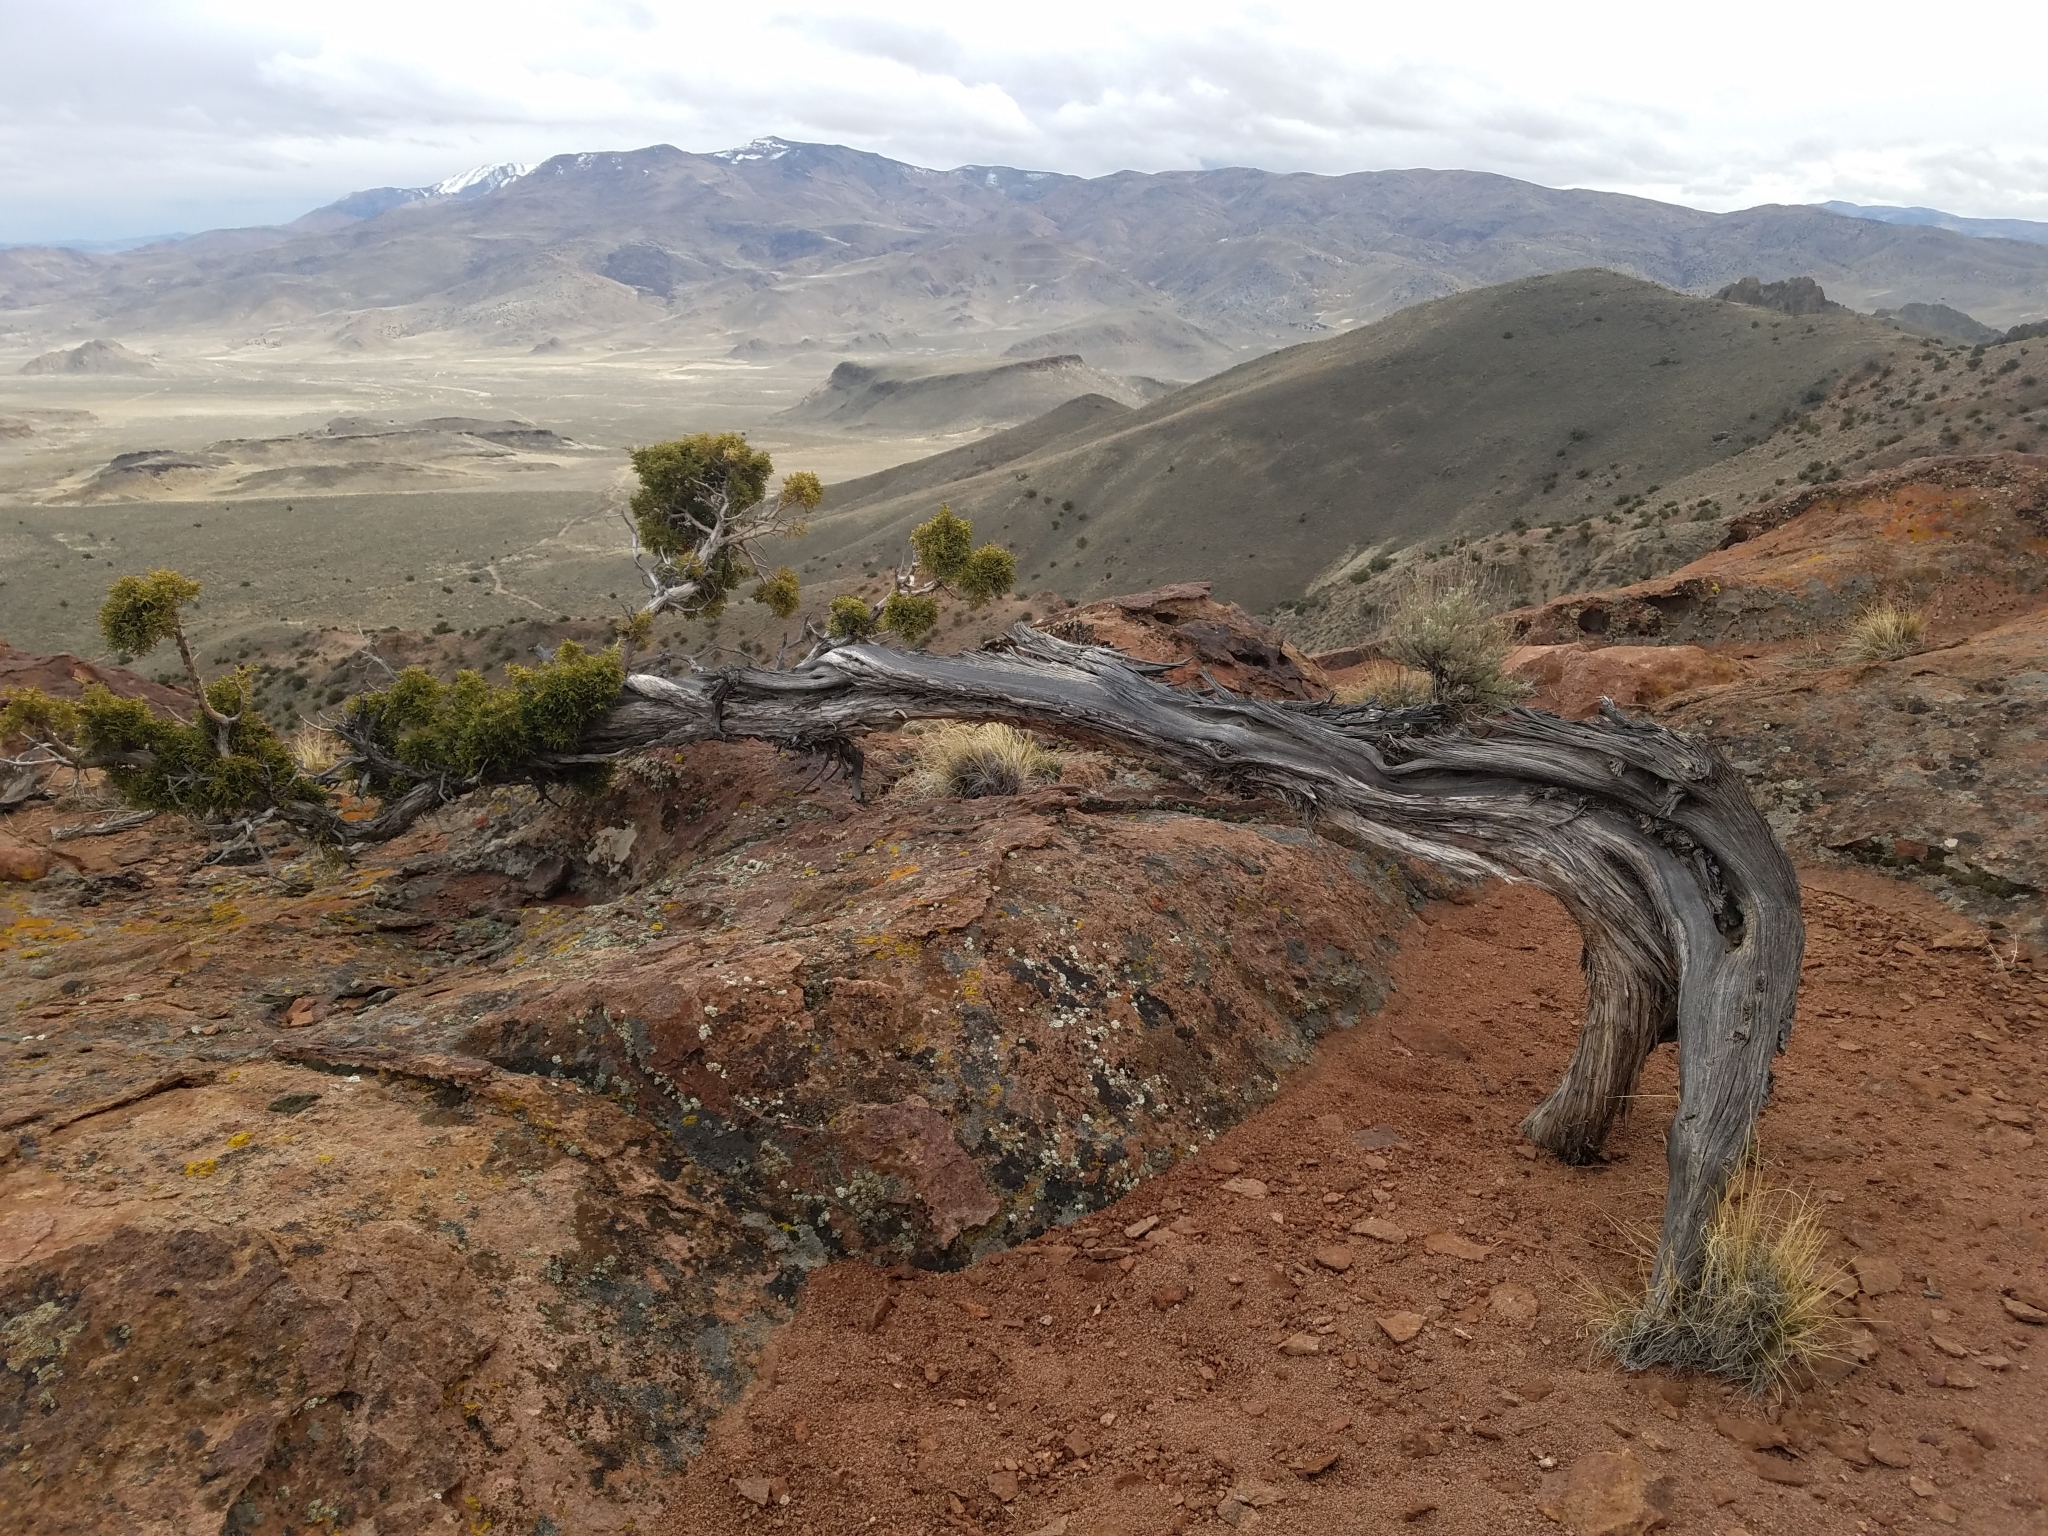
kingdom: Plantae
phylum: Tracheophyta
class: Pinopsida
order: Pinales
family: Cupressaceae
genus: Juniperus
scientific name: Juniperus osteosperma
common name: Utah juniper
